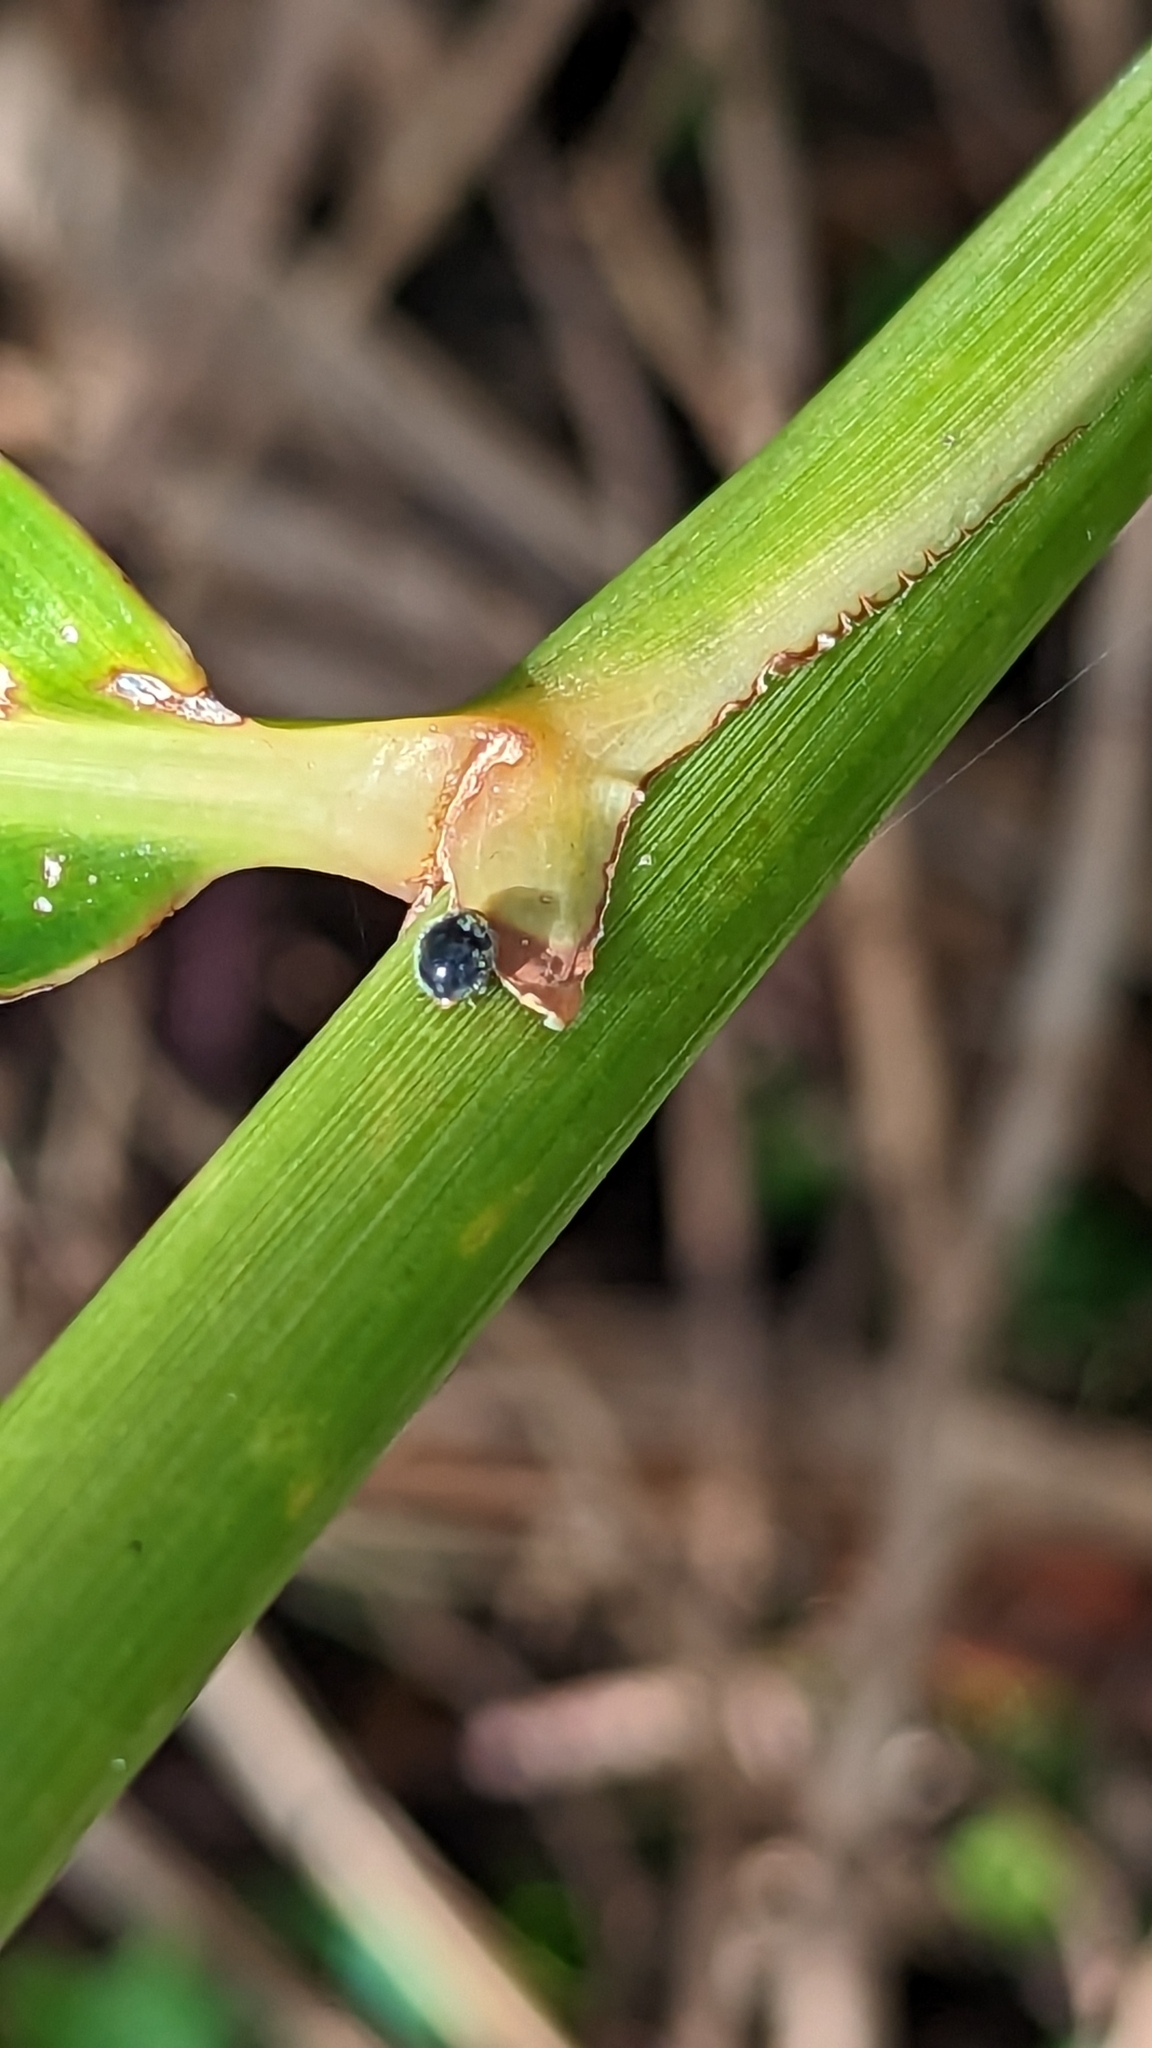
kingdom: Animalia
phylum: Arthropoda
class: Insecta
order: Coleoptera
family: Coccinellidae
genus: Scymnodes
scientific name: Scymnodes lividigaster
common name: Yellowshouldered lady beetle
